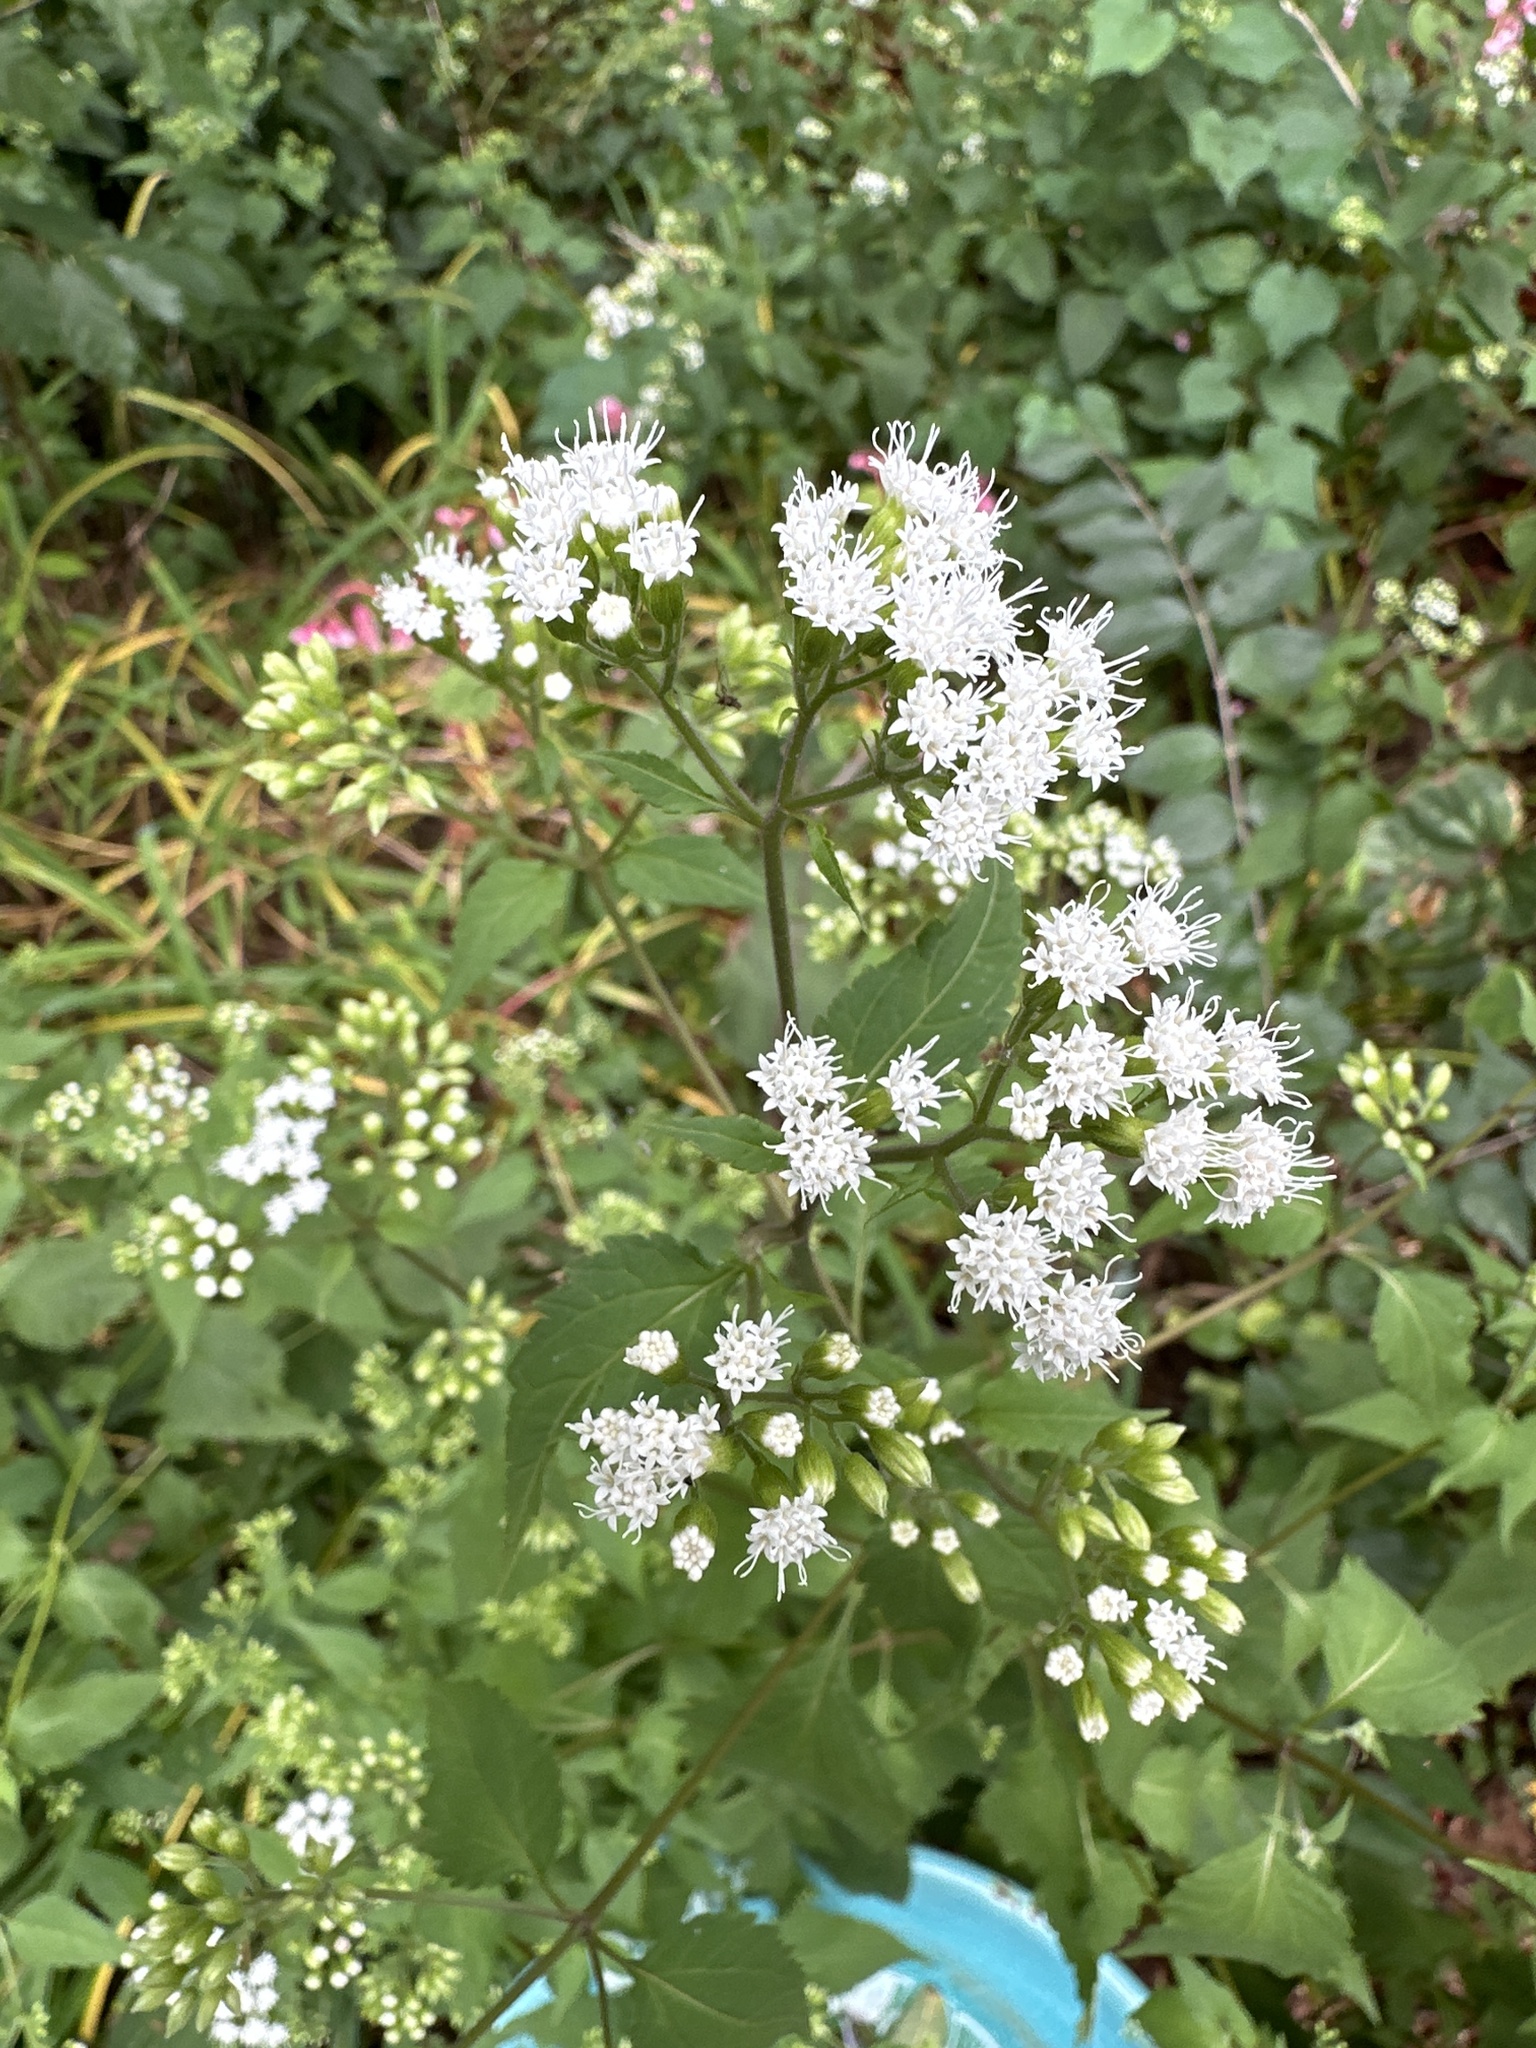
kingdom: Plantae
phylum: Tracheophyta
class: Magnoliopsida
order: Asterales
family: Asteraceae
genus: Ageratina
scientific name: Ageratina altissima
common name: White snakeroot
